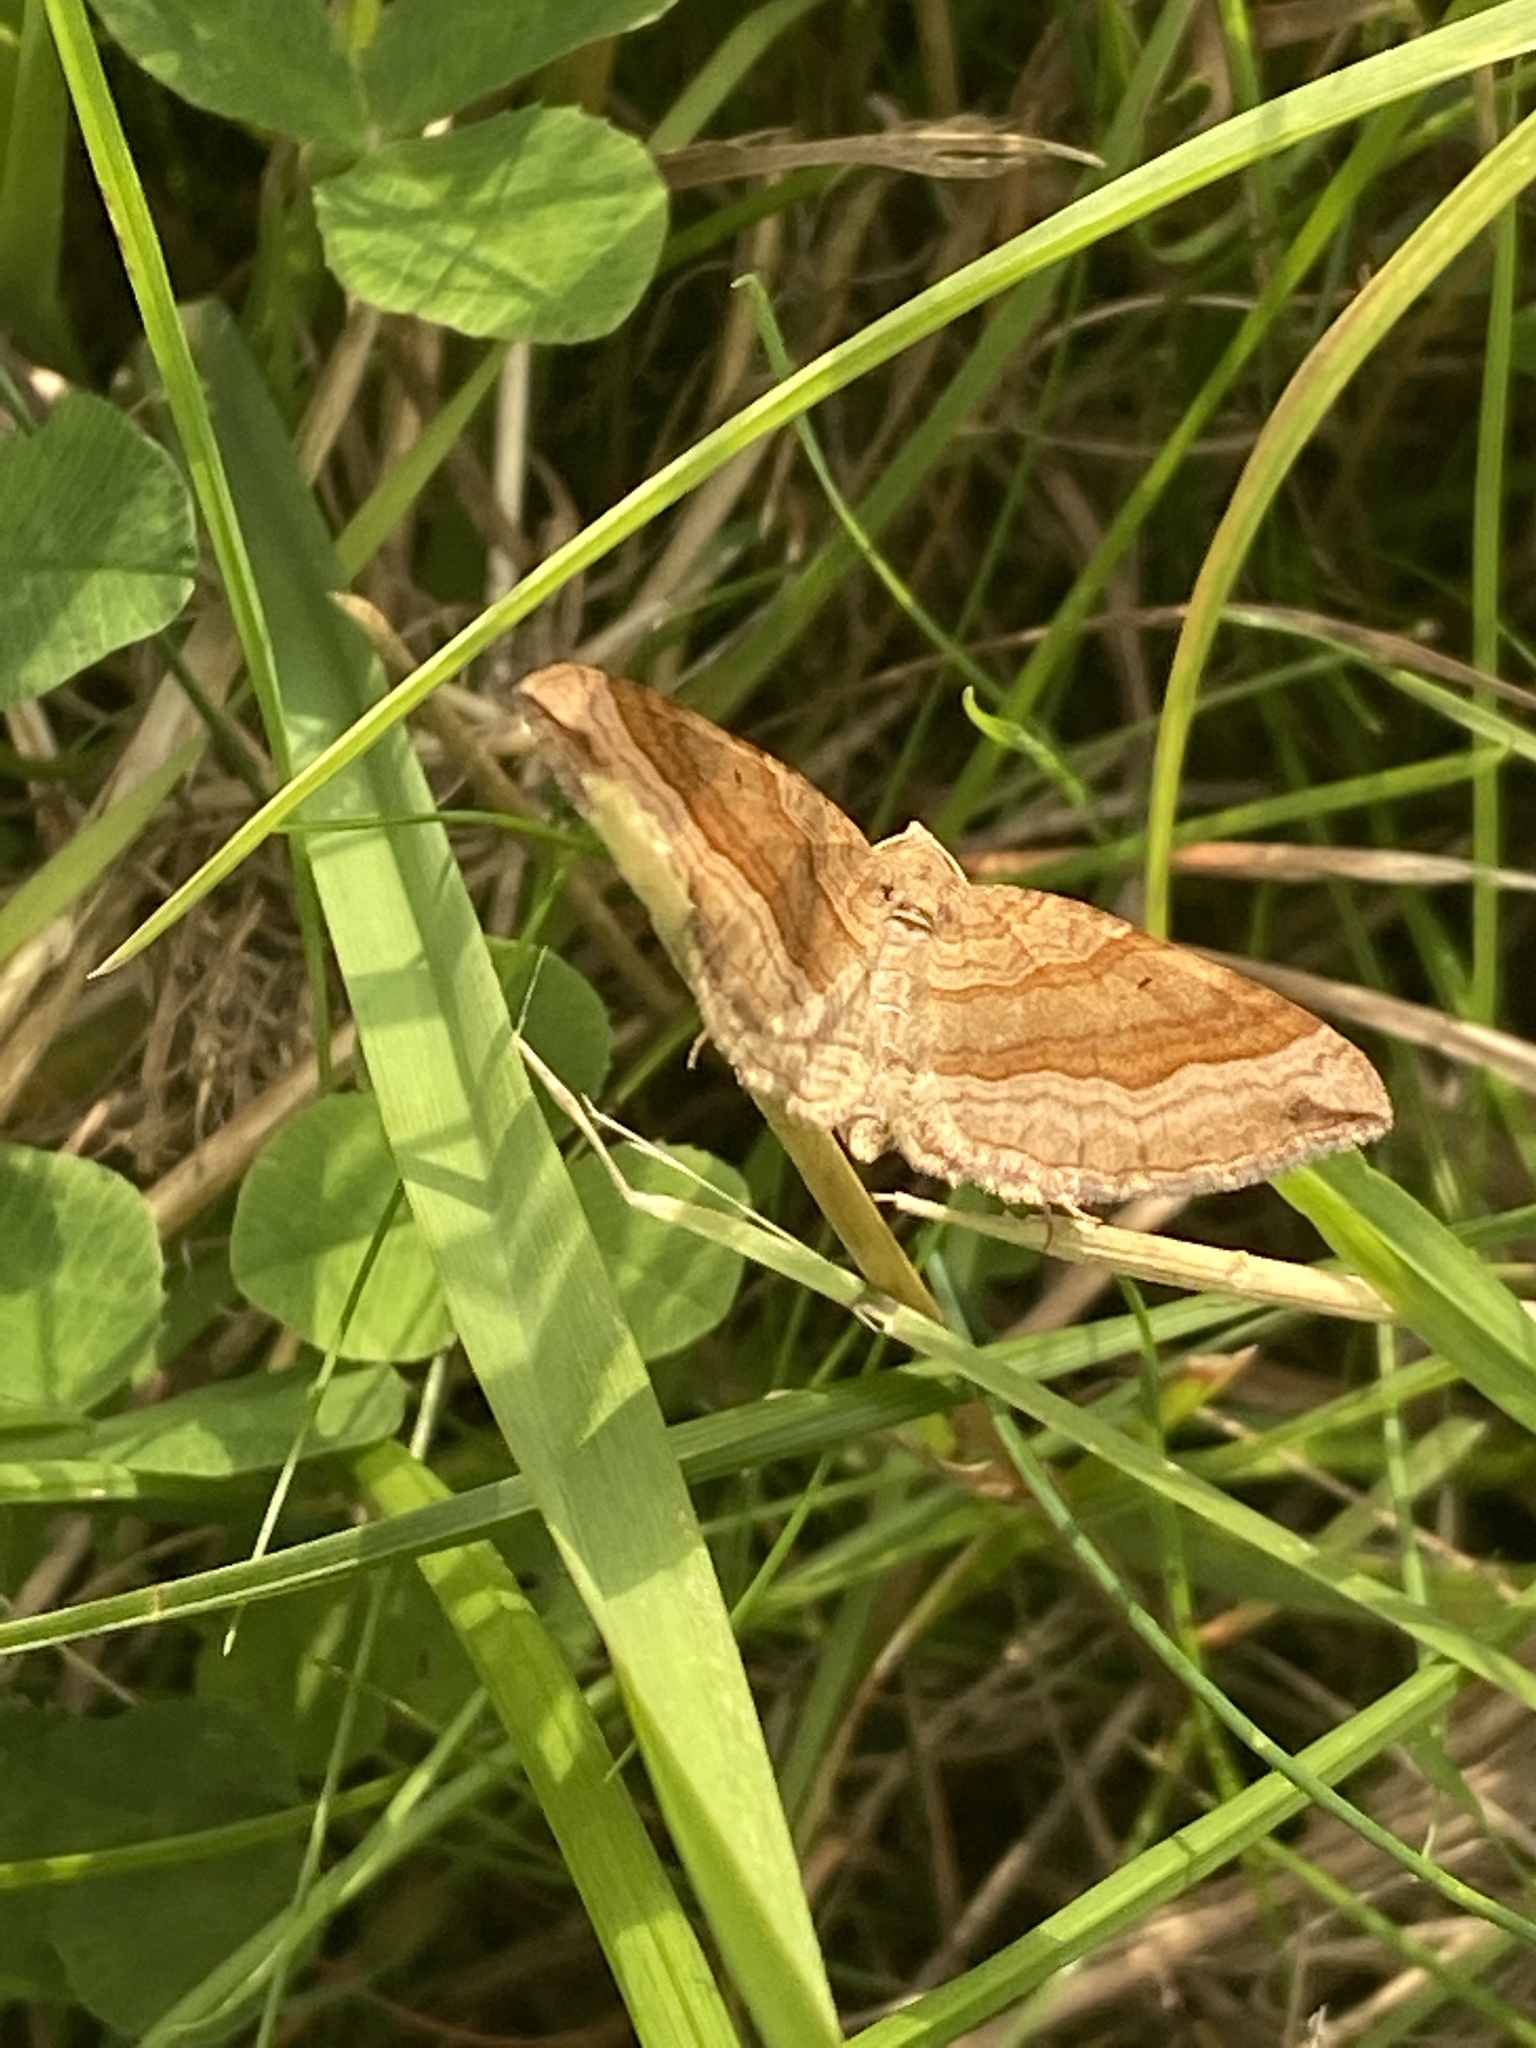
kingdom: Animalia
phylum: Arthropoda
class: Insecta
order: Lepidoptera
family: Geometridae
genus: Scotopteryx
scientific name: Scotopteryx chenopodiata
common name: Shaded broad-bar
